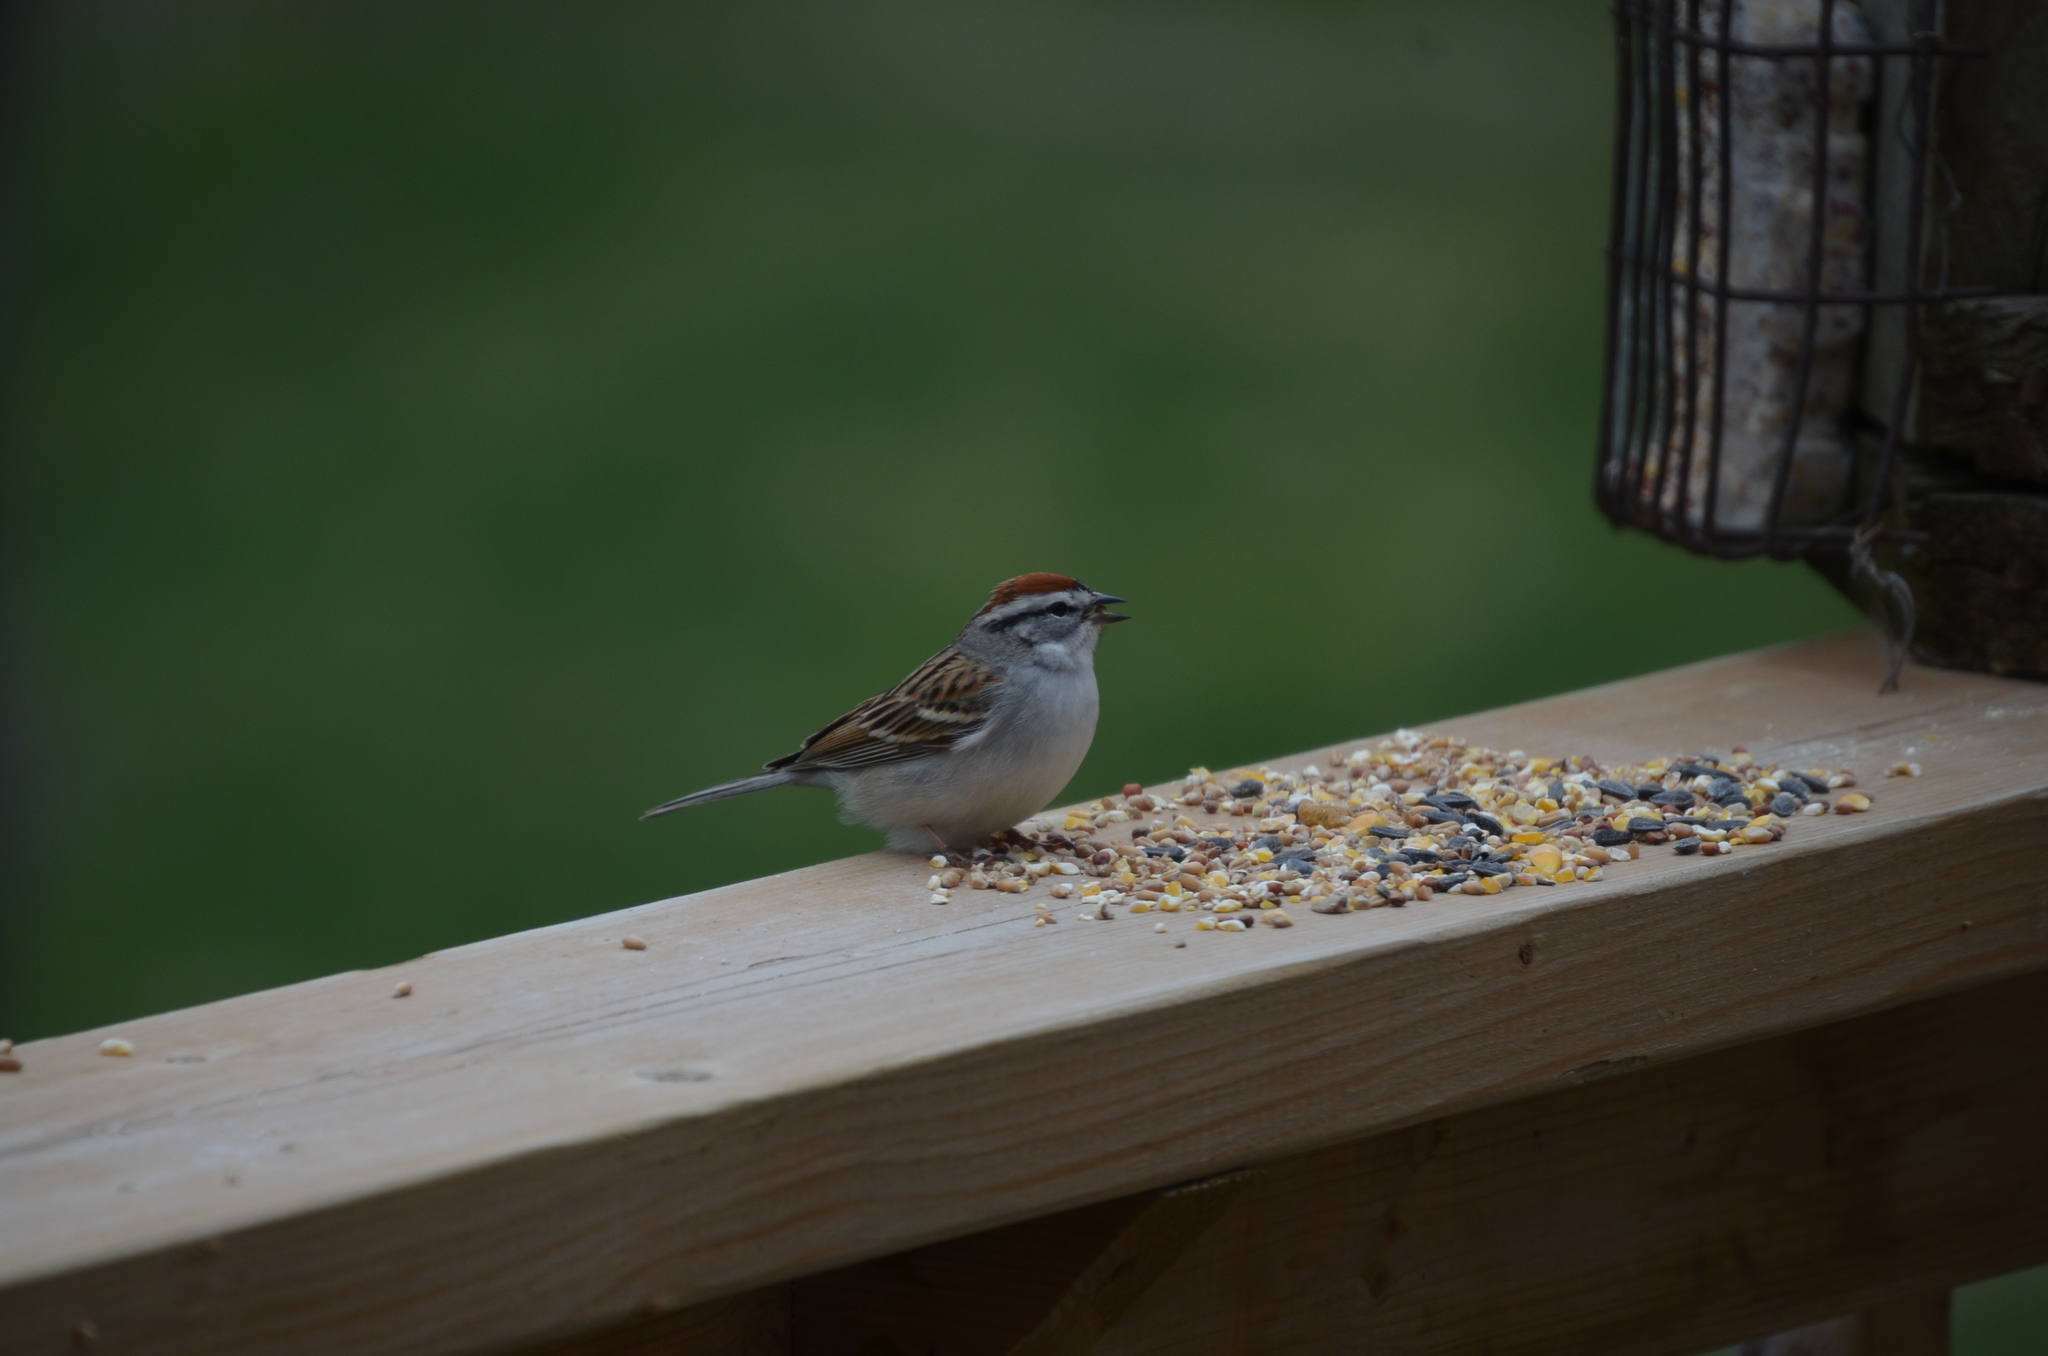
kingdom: Animalia
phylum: Chordata
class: Aves
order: Passeriformes
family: Passerellidae
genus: Spizella
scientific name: Spizella passerina
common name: Chipping sparrow
